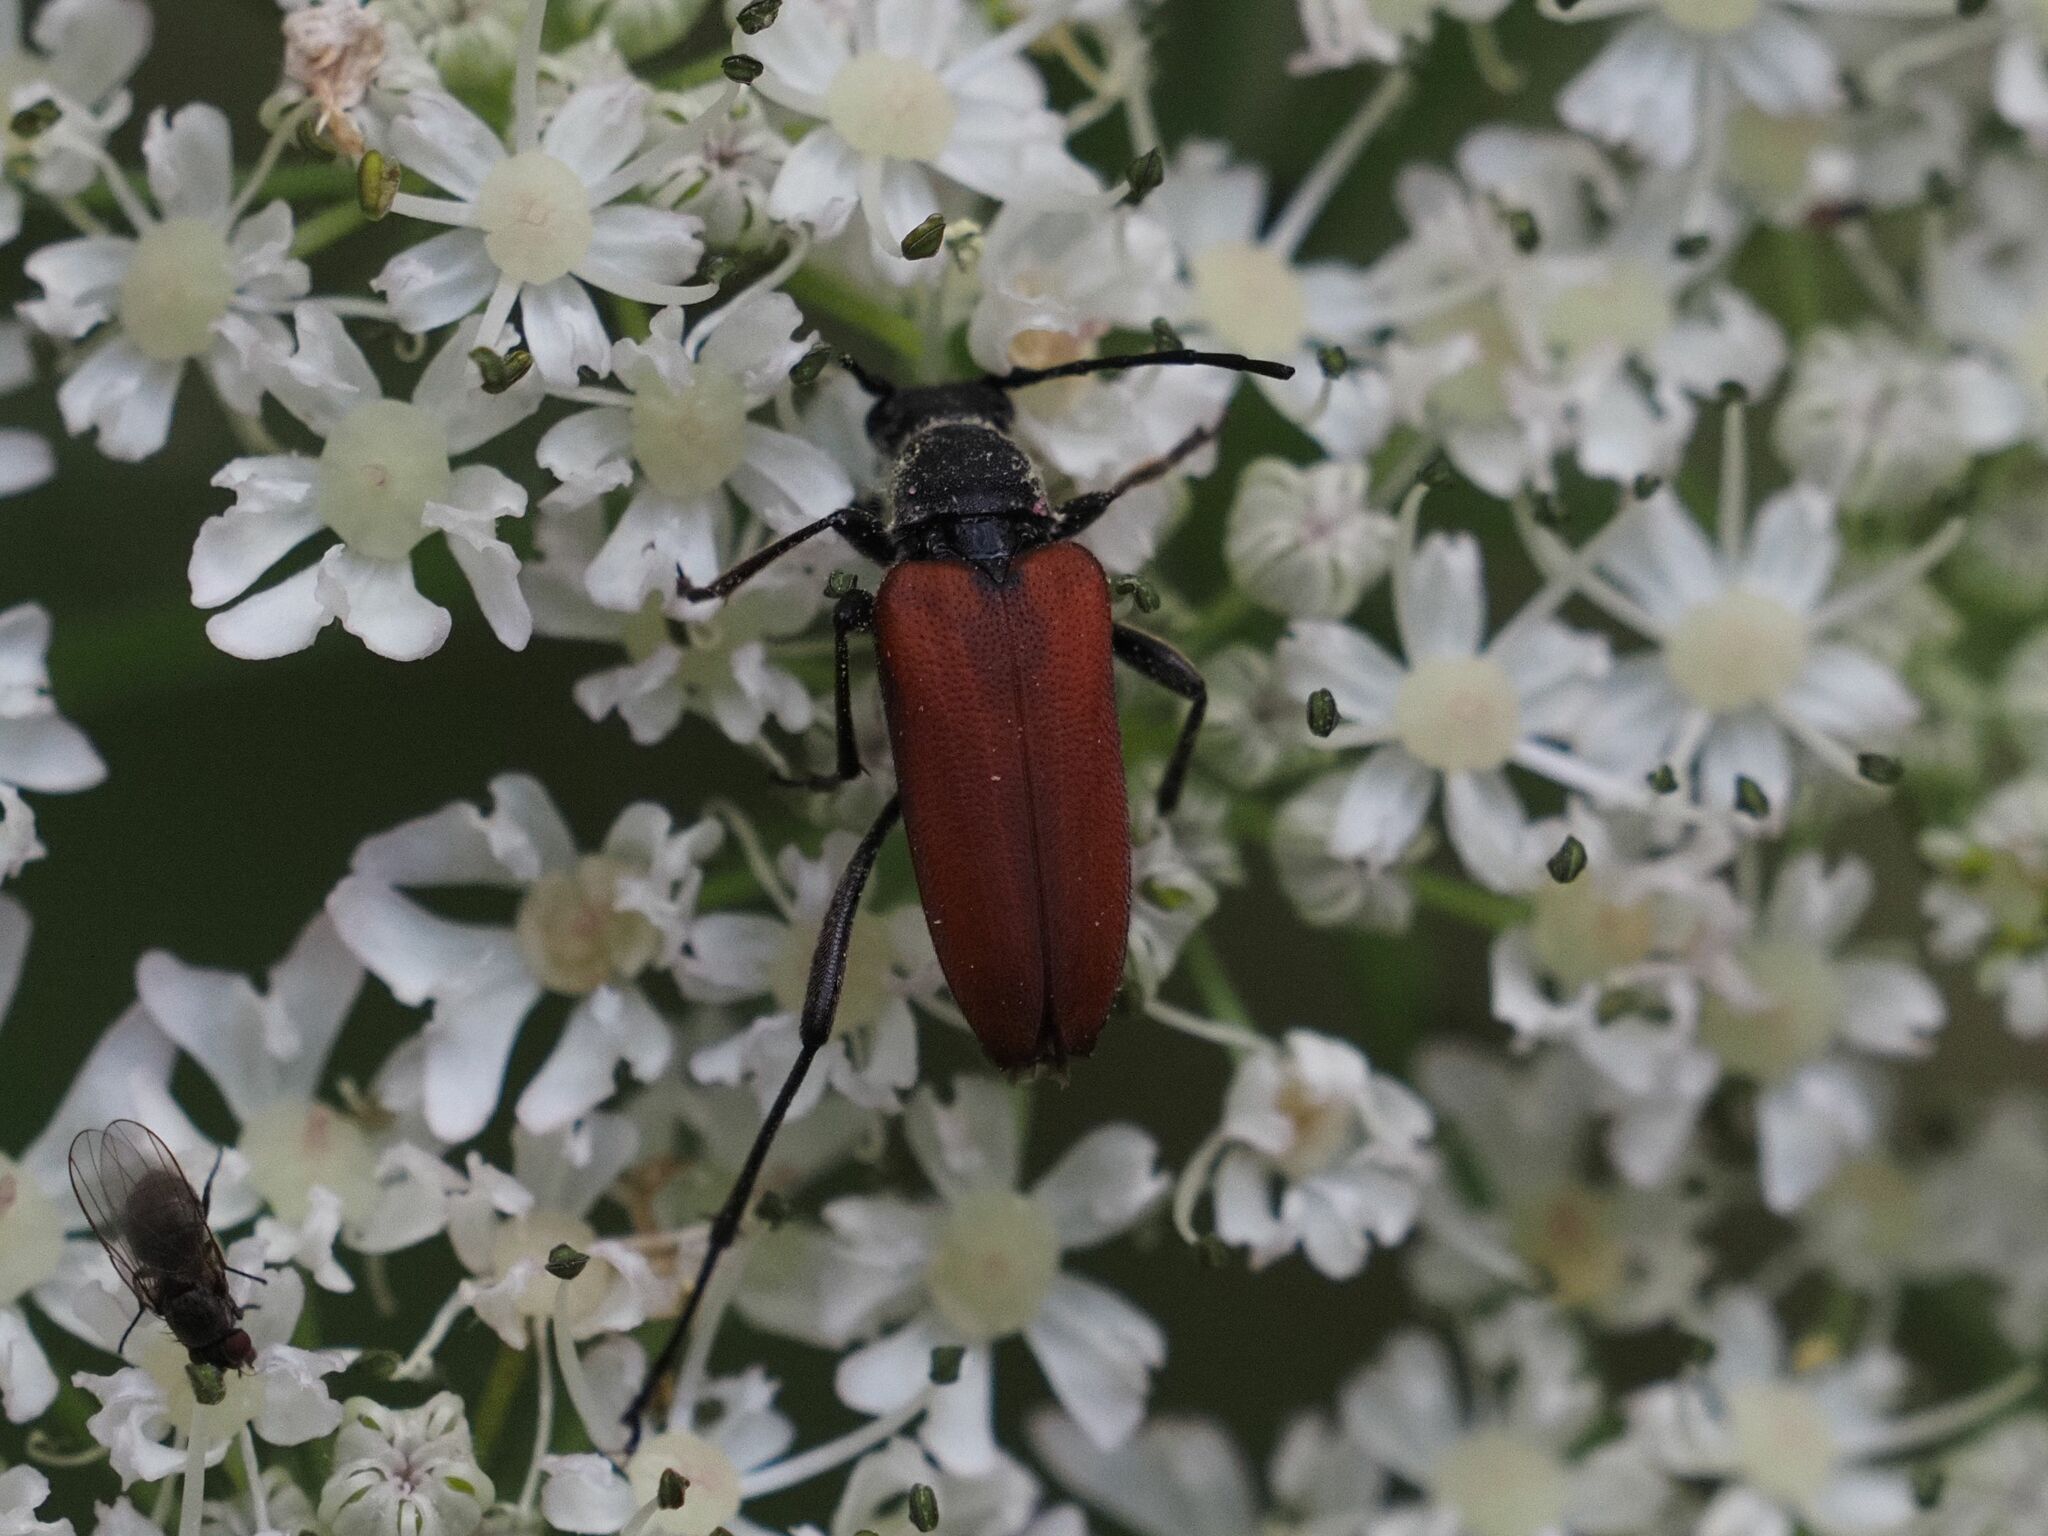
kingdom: Animalia
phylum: Arthropoda
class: Insecta
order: Coleoptera
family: Cerambycidae
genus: Anastrangalia
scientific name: Anastrangalia sanguinolenta
